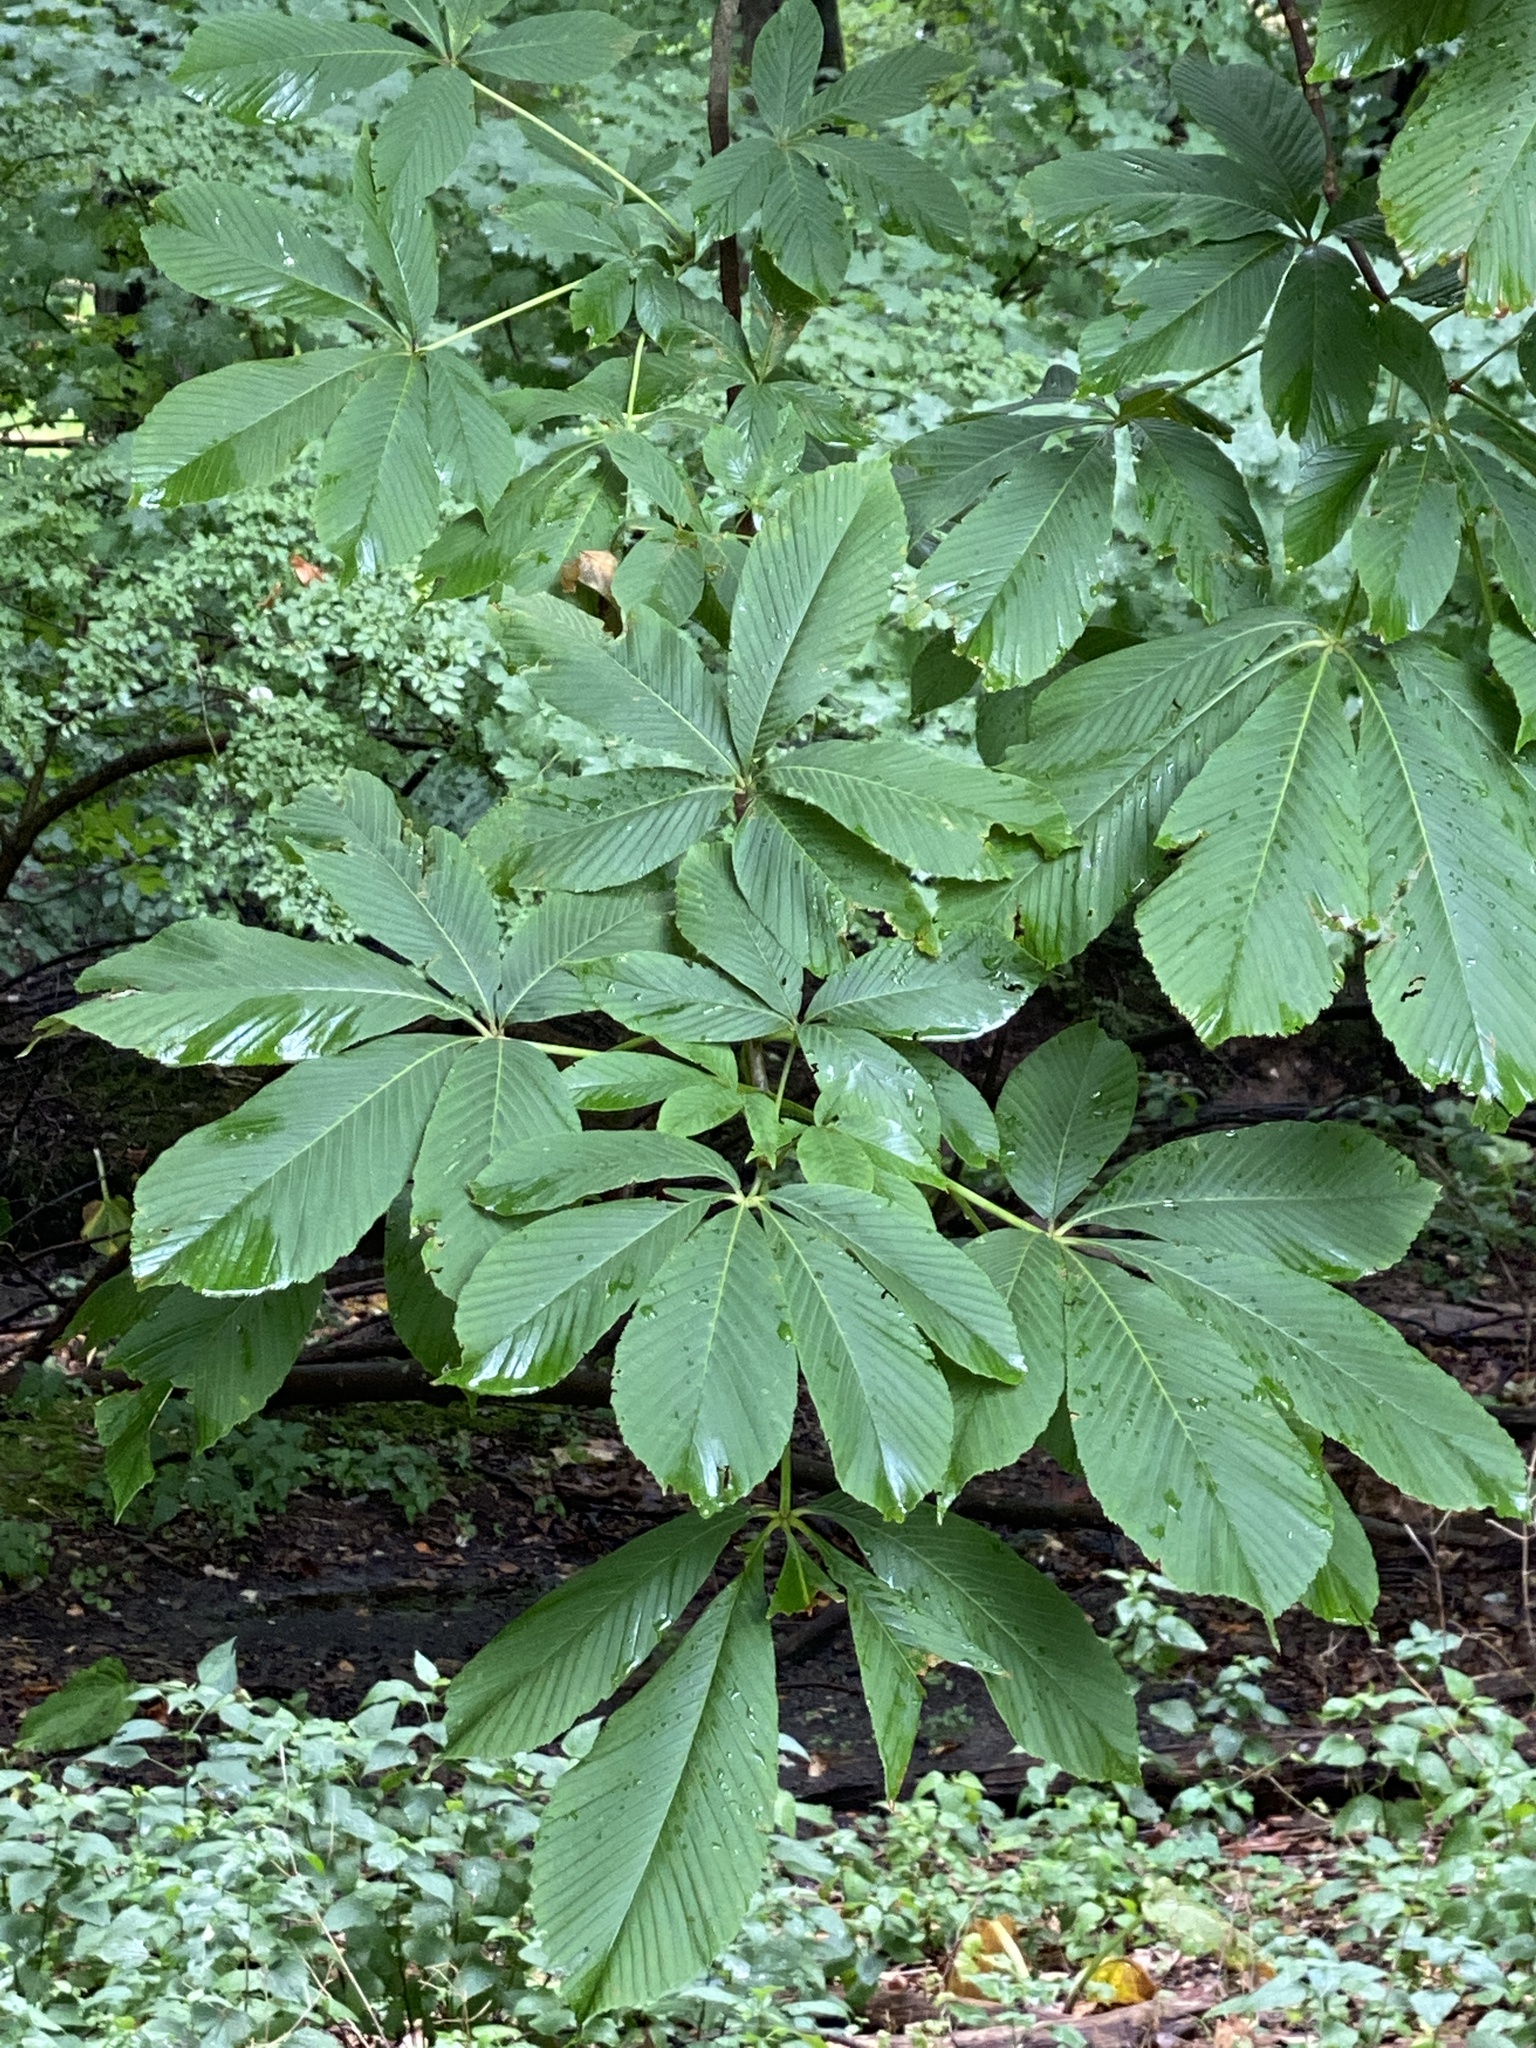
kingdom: Plantae
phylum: Tracheophyta
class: Magnoliopsida
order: Sapindales
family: Sapindaceae
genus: Aesculus
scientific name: Aesculus flava
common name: Yellow buckeye
